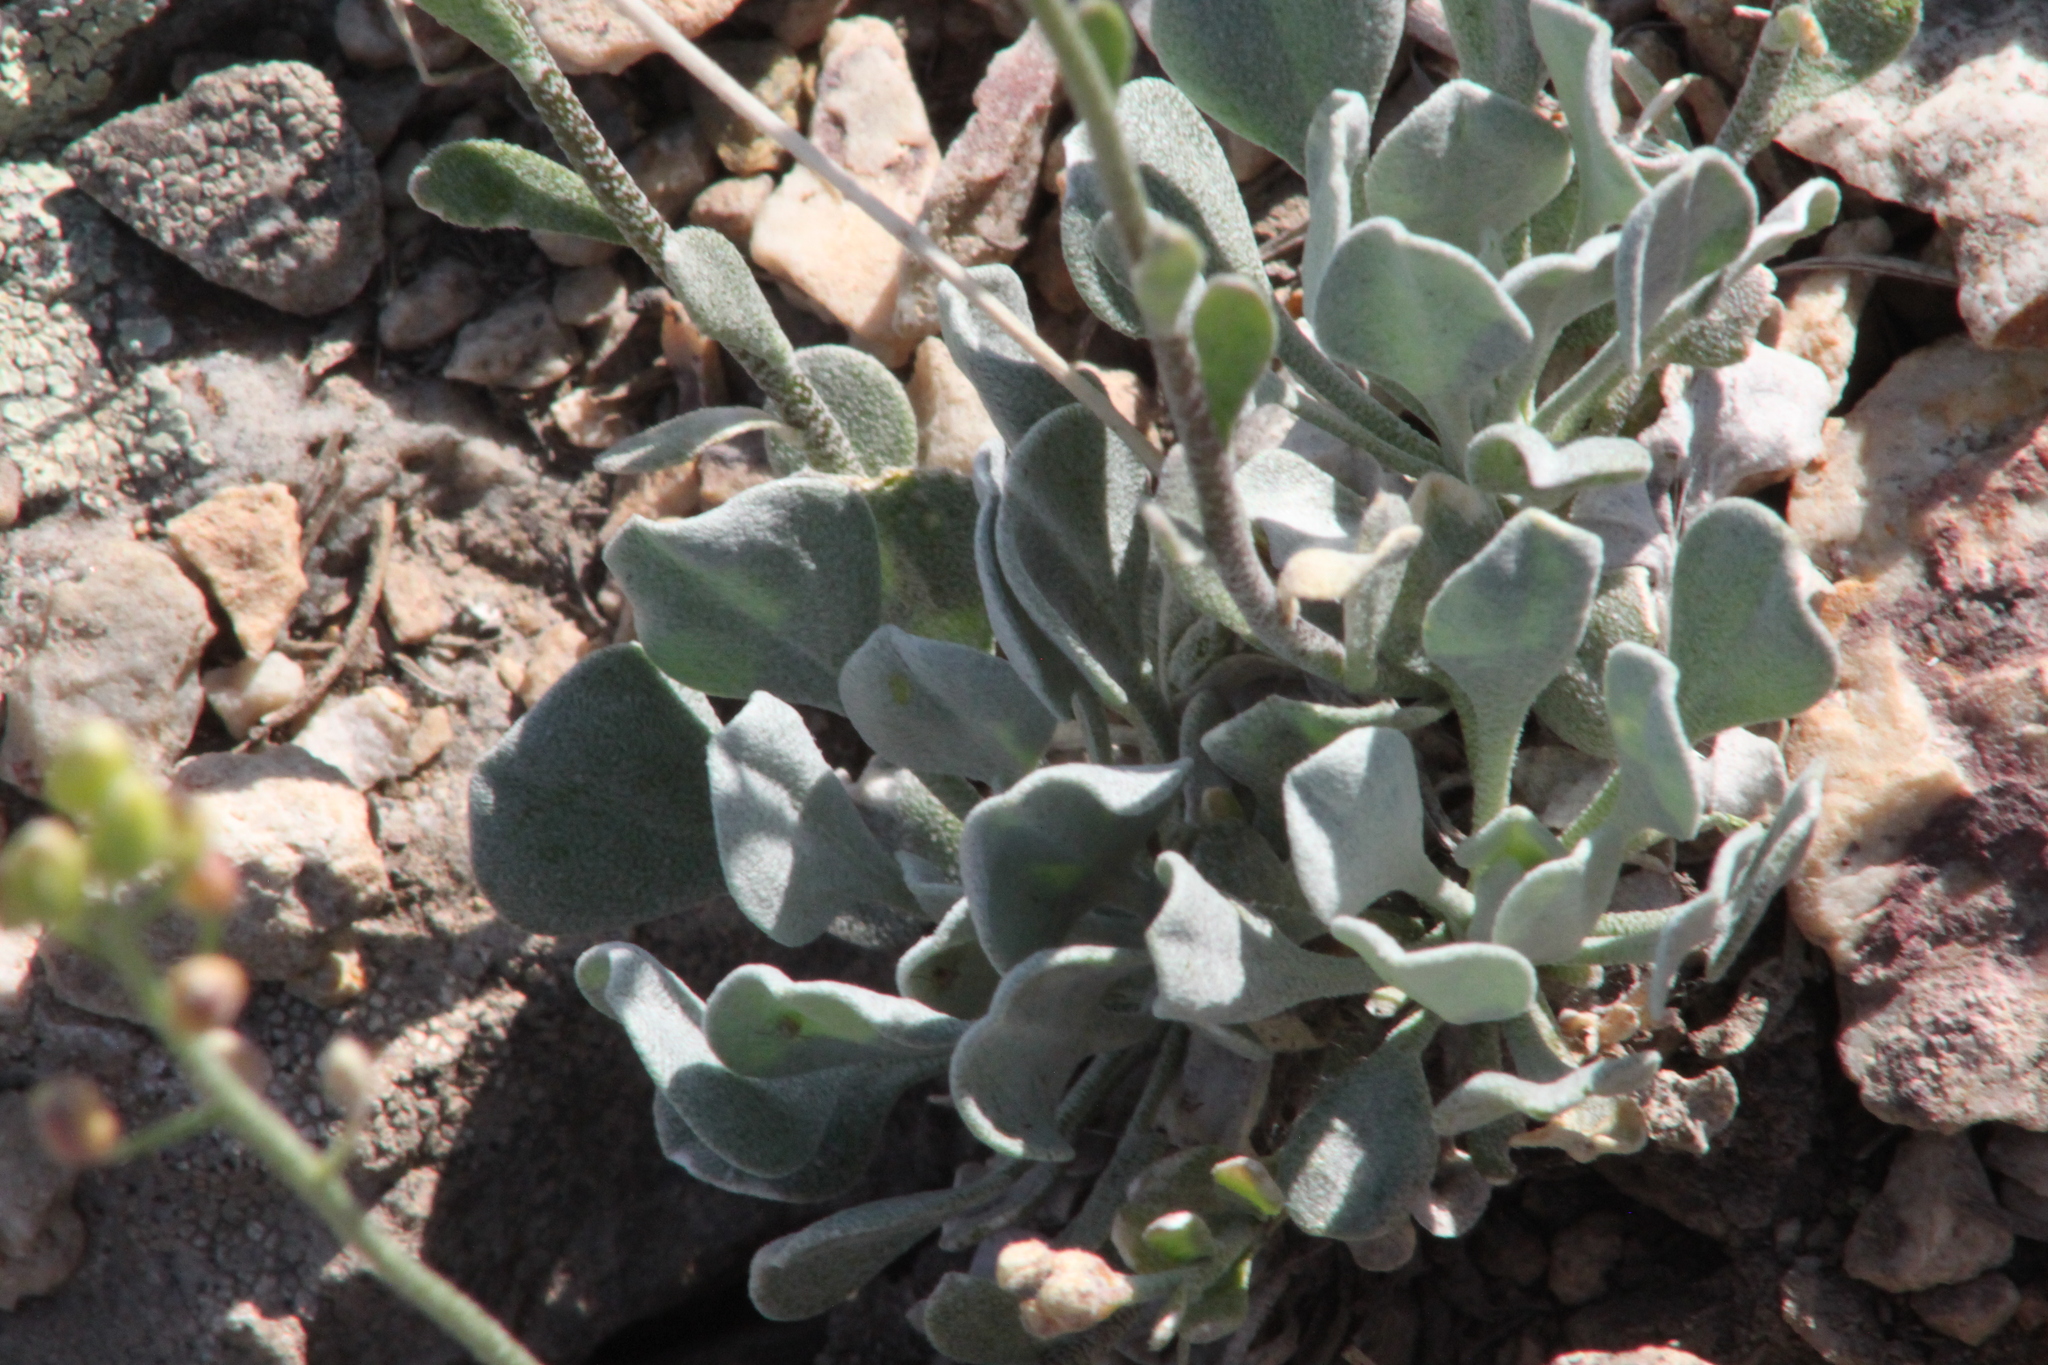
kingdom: Plantae
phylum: Tracheophyta
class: Magnoliopsida
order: Brassicales
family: Brassicaceae
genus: Galitzkya
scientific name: Galitzkya spathulata
